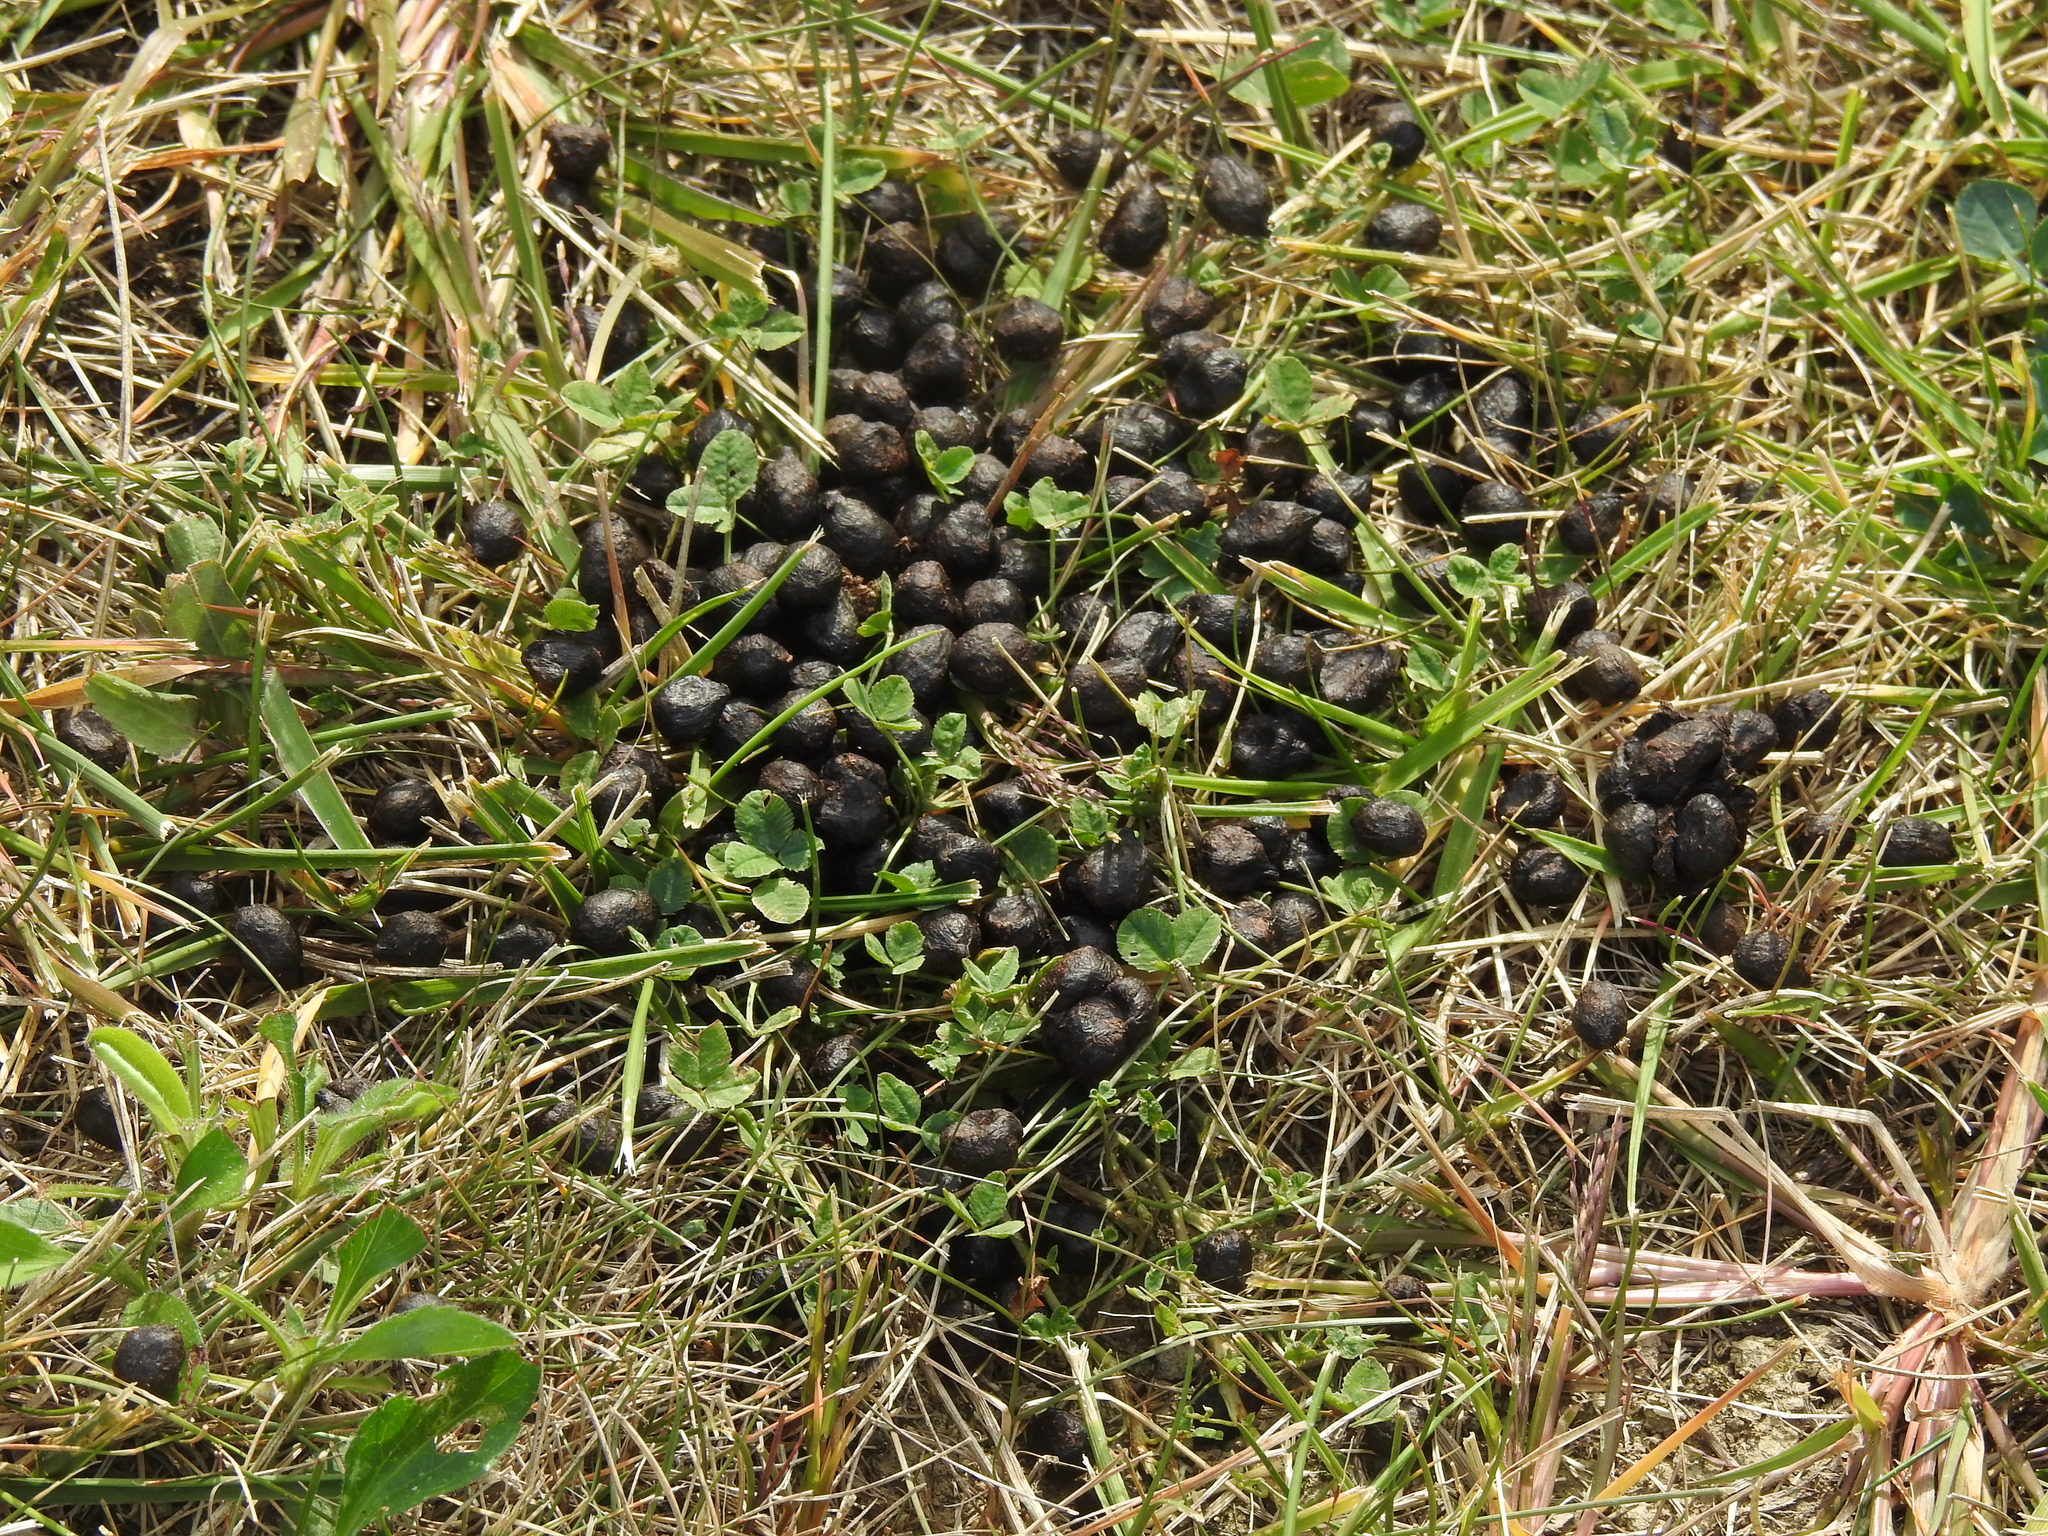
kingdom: Animalia
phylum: Chordata
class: Mammalia
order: Artiodactyla
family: Cervidae
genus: Odocoileus
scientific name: Odocoileus virginianus
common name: White-tailed deer
